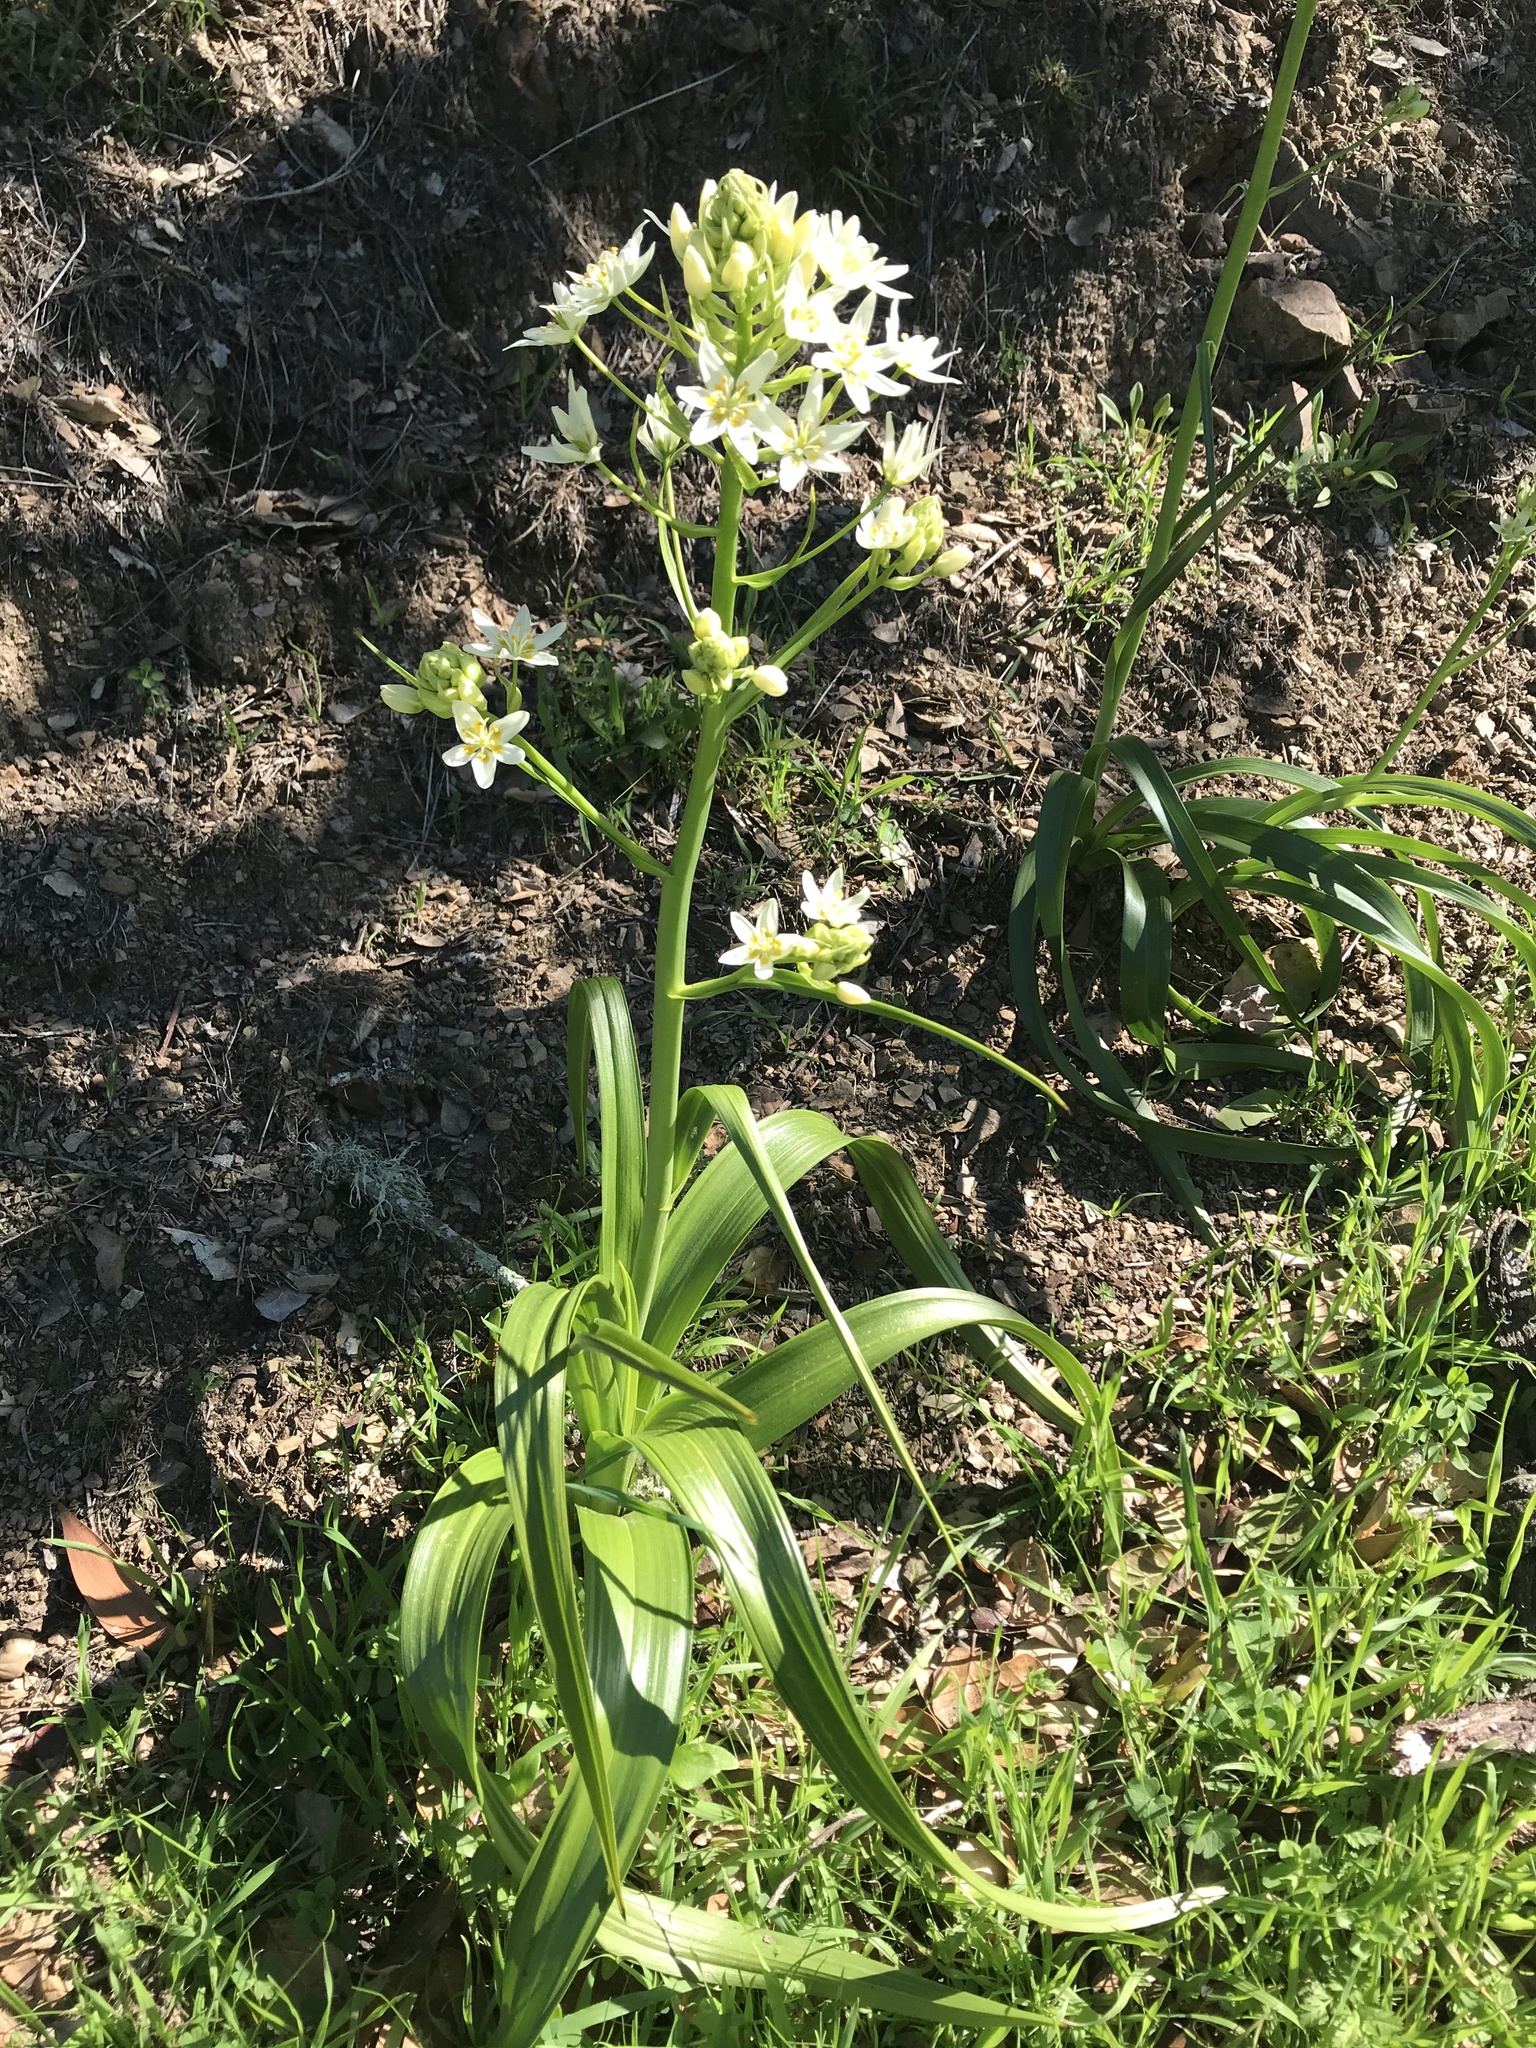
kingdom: Plantae
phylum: Tracheophyta
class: Liliopsida
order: Liliales
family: Melanthiaceae
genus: Toxicoscordion
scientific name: Toxicoscordion fremontii
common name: Fremont's death camas
